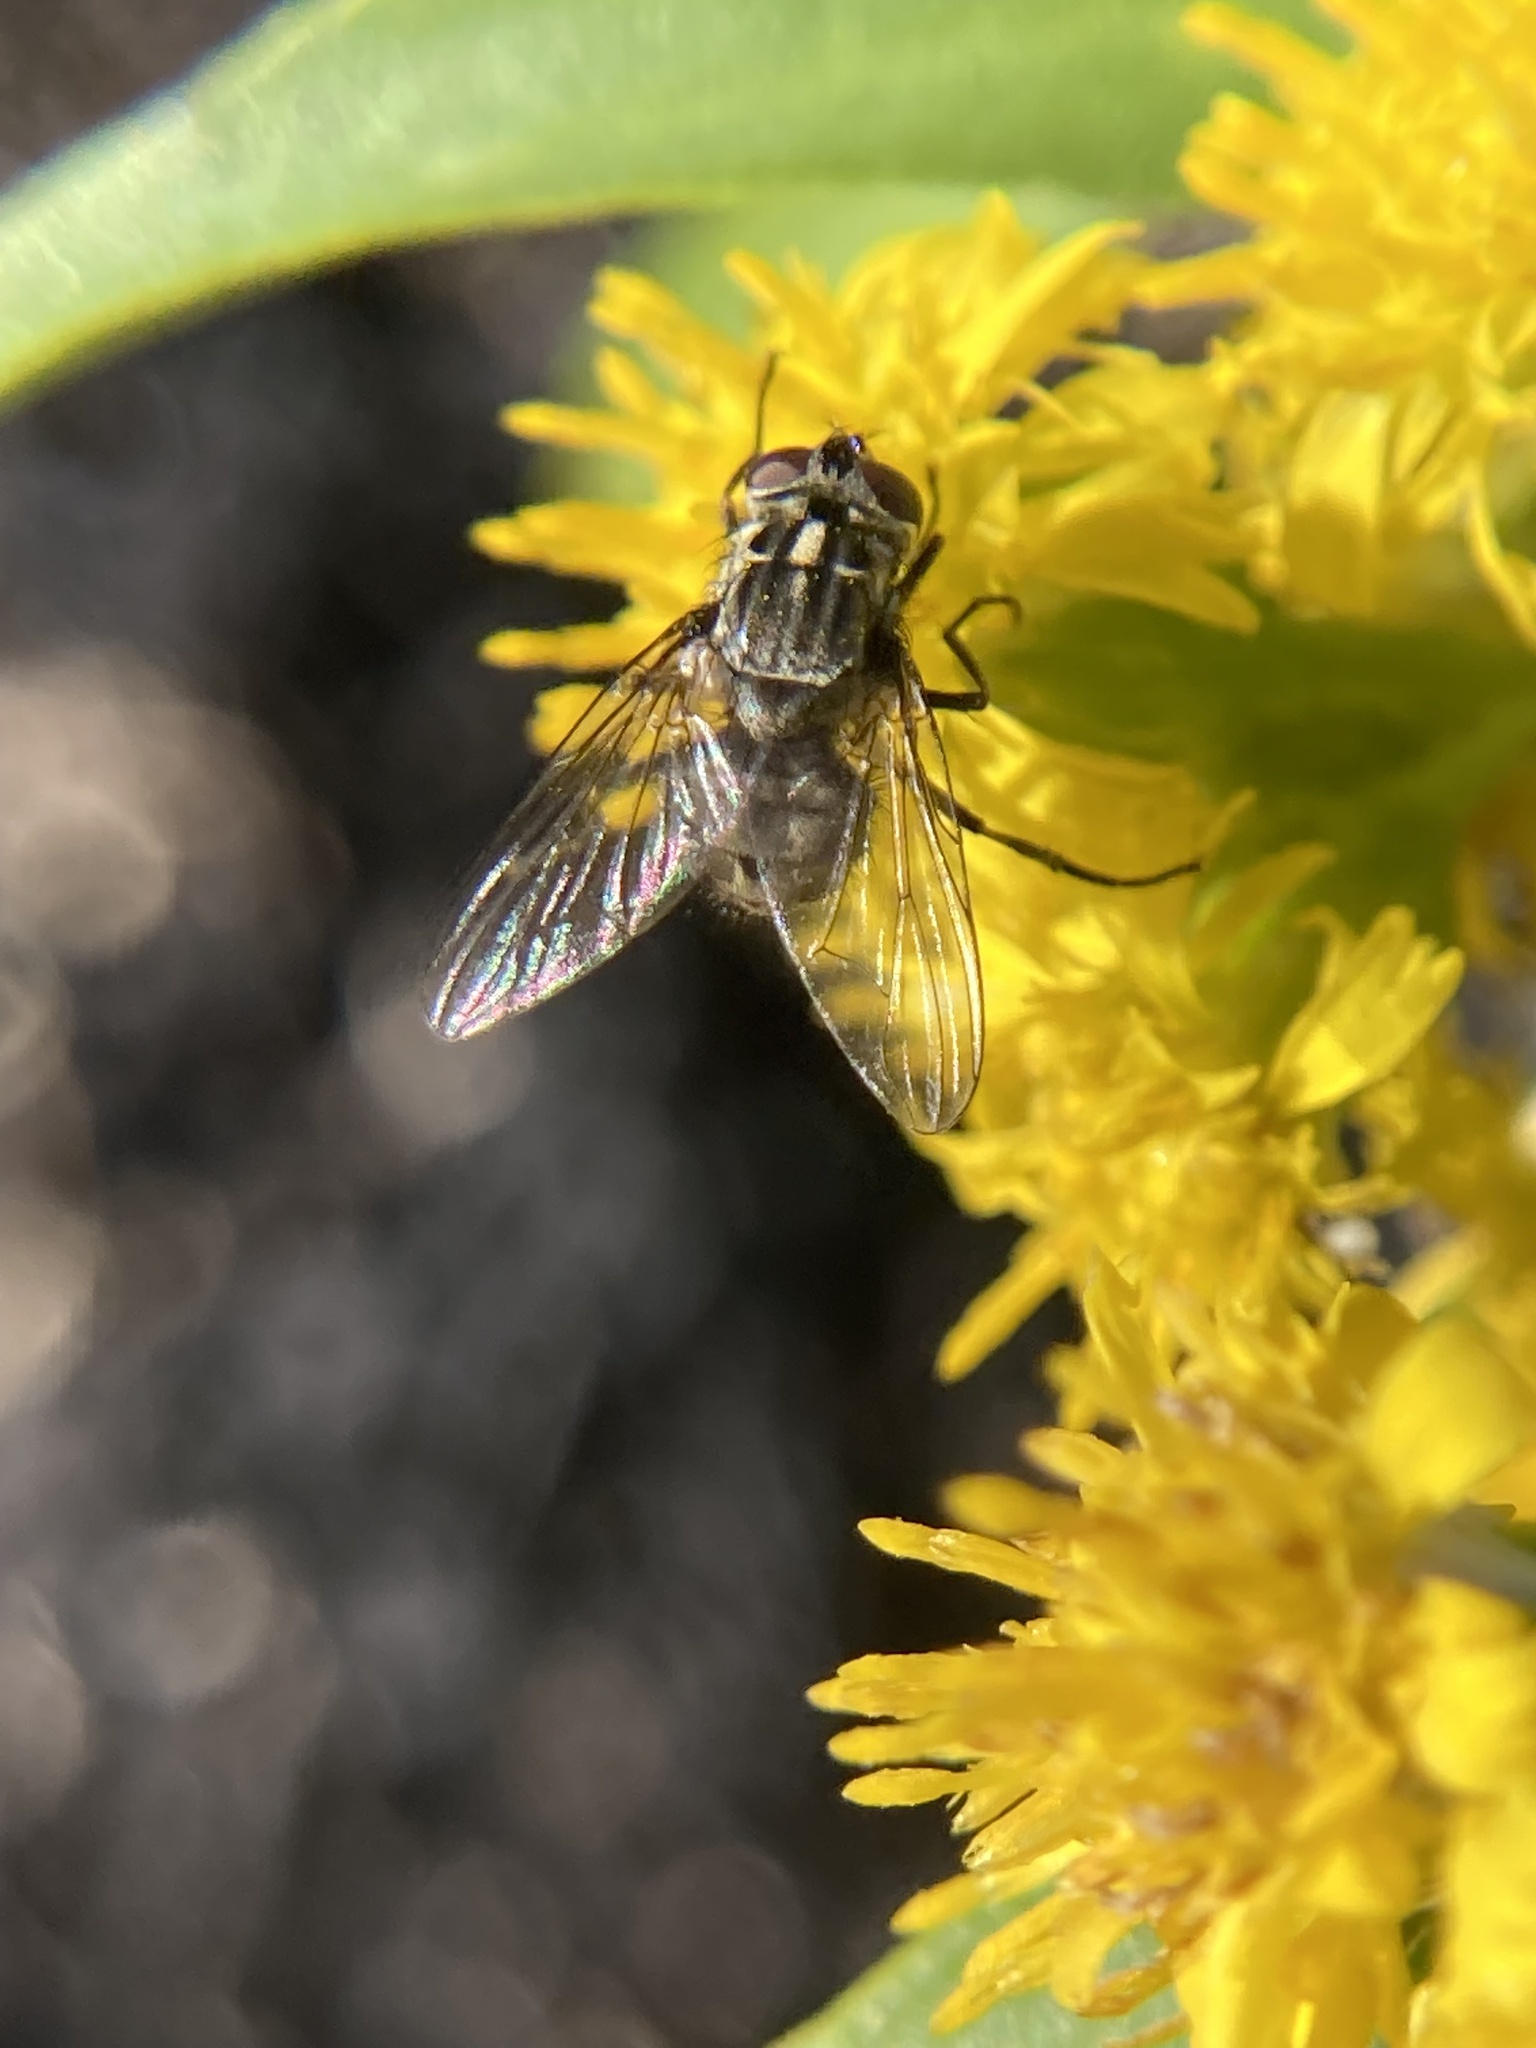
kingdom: Animalia
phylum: Arthropoda
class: Insecta
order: Diptera
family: Muscidae
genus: Stomoxys
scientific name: Stomoxys calcitrans
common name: Stable fly
